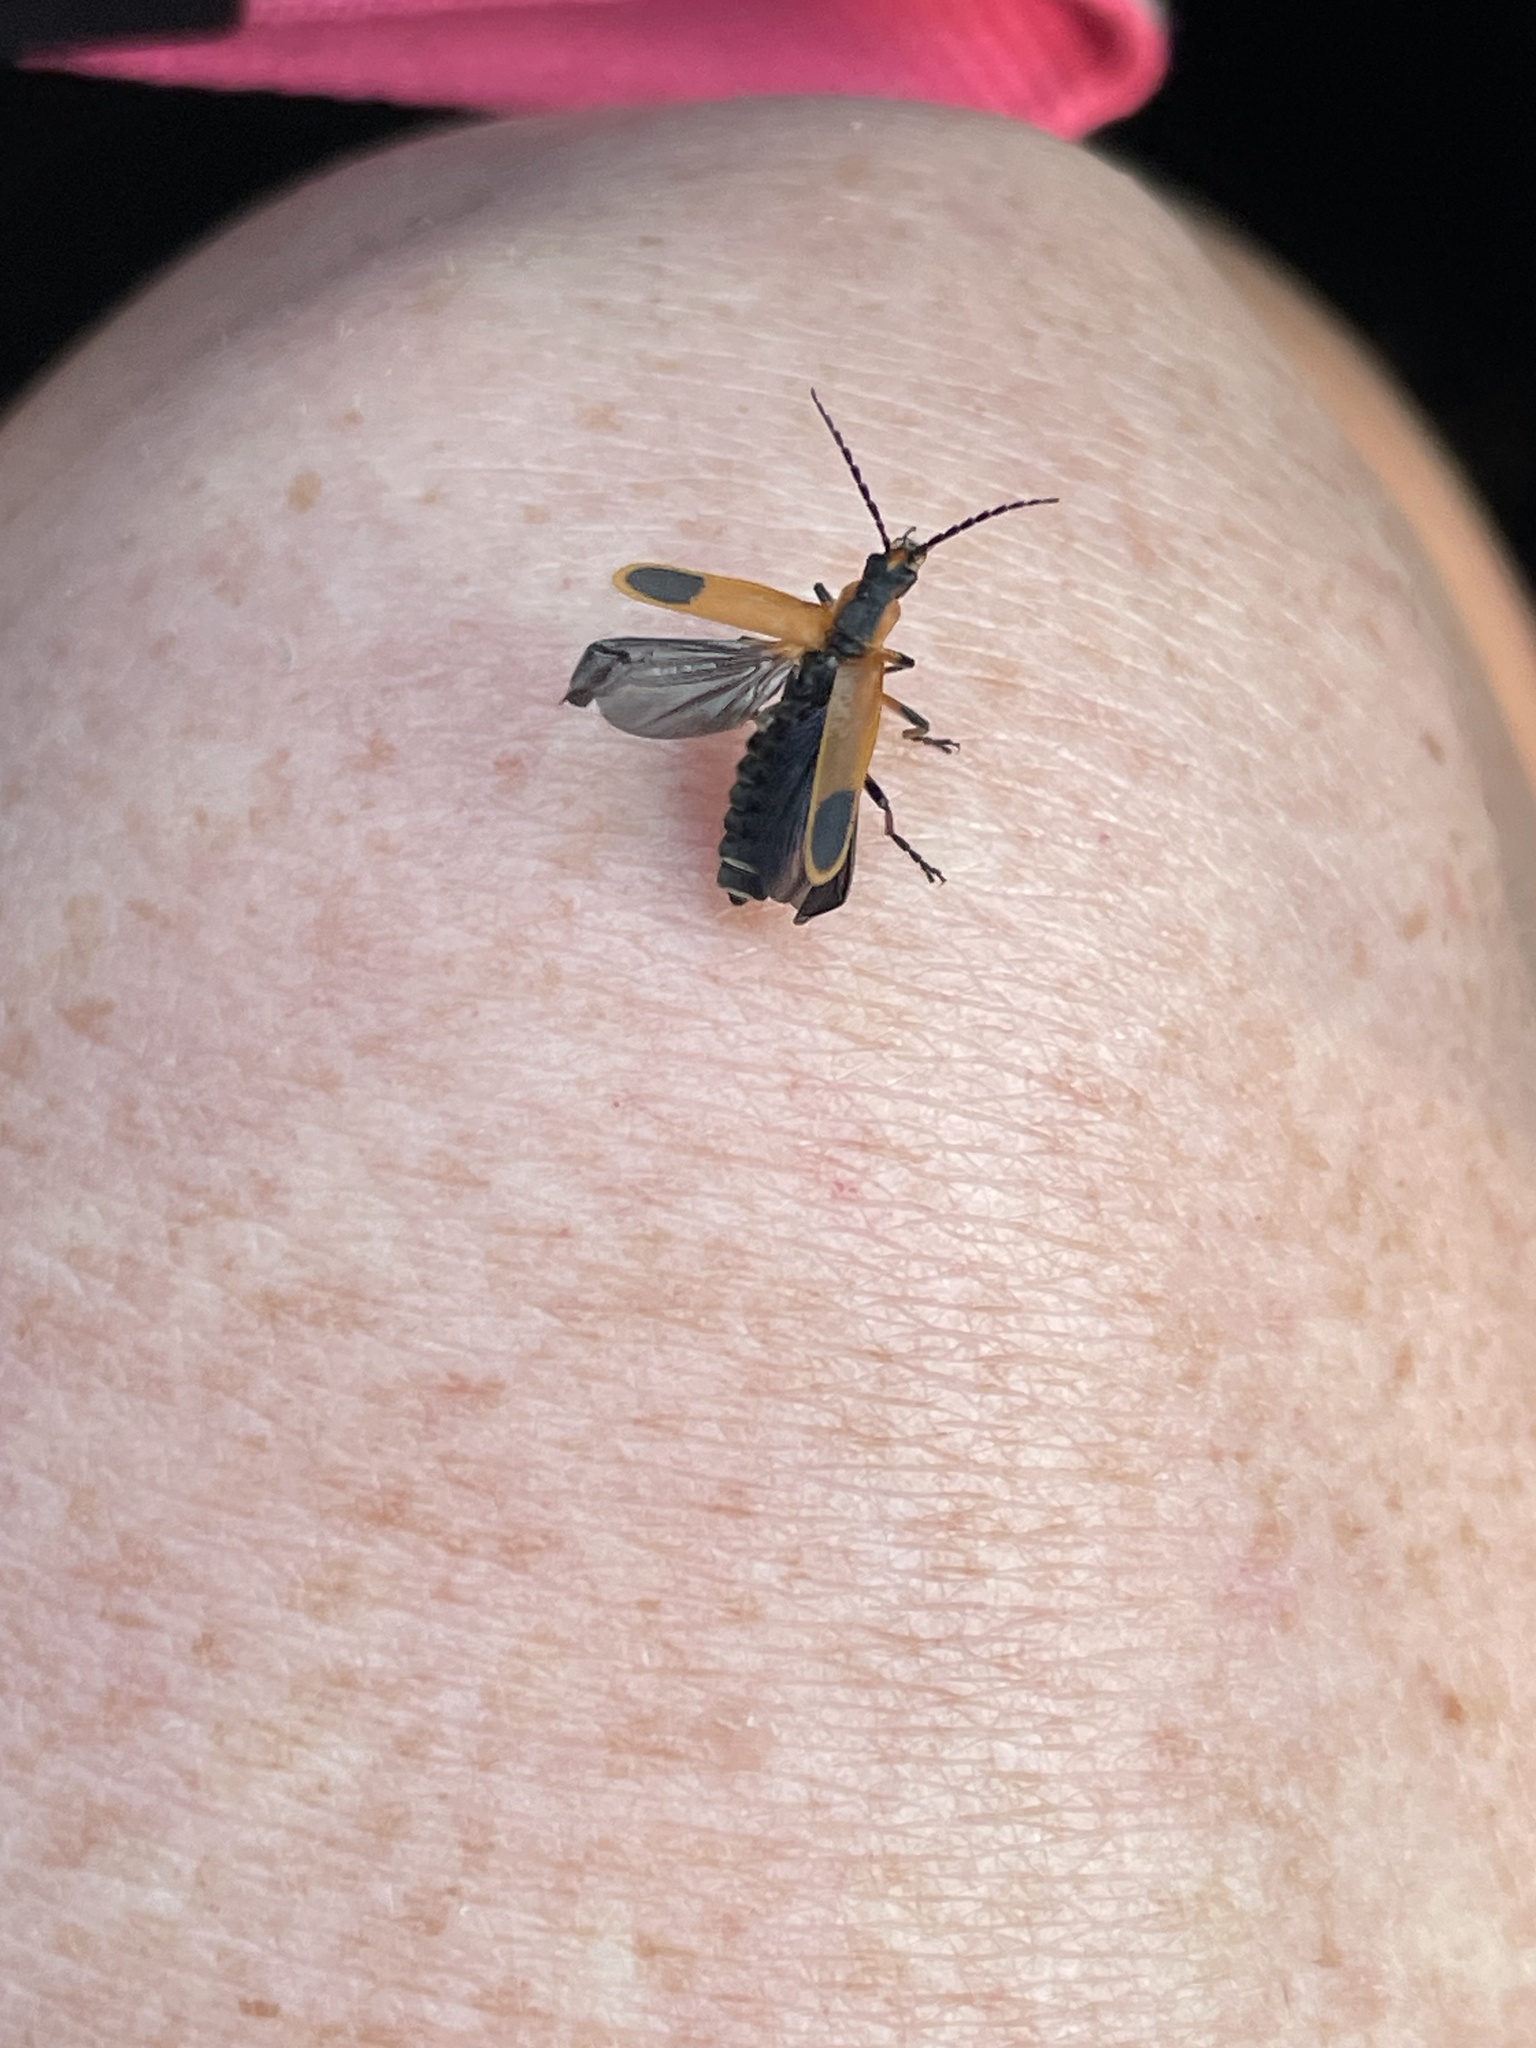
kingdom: Animalia
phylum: Arthropoda
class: Insecta
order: Coleoptera
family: Cantharidae
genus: Chauliognathus
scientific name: Chauliognathus marginatus
